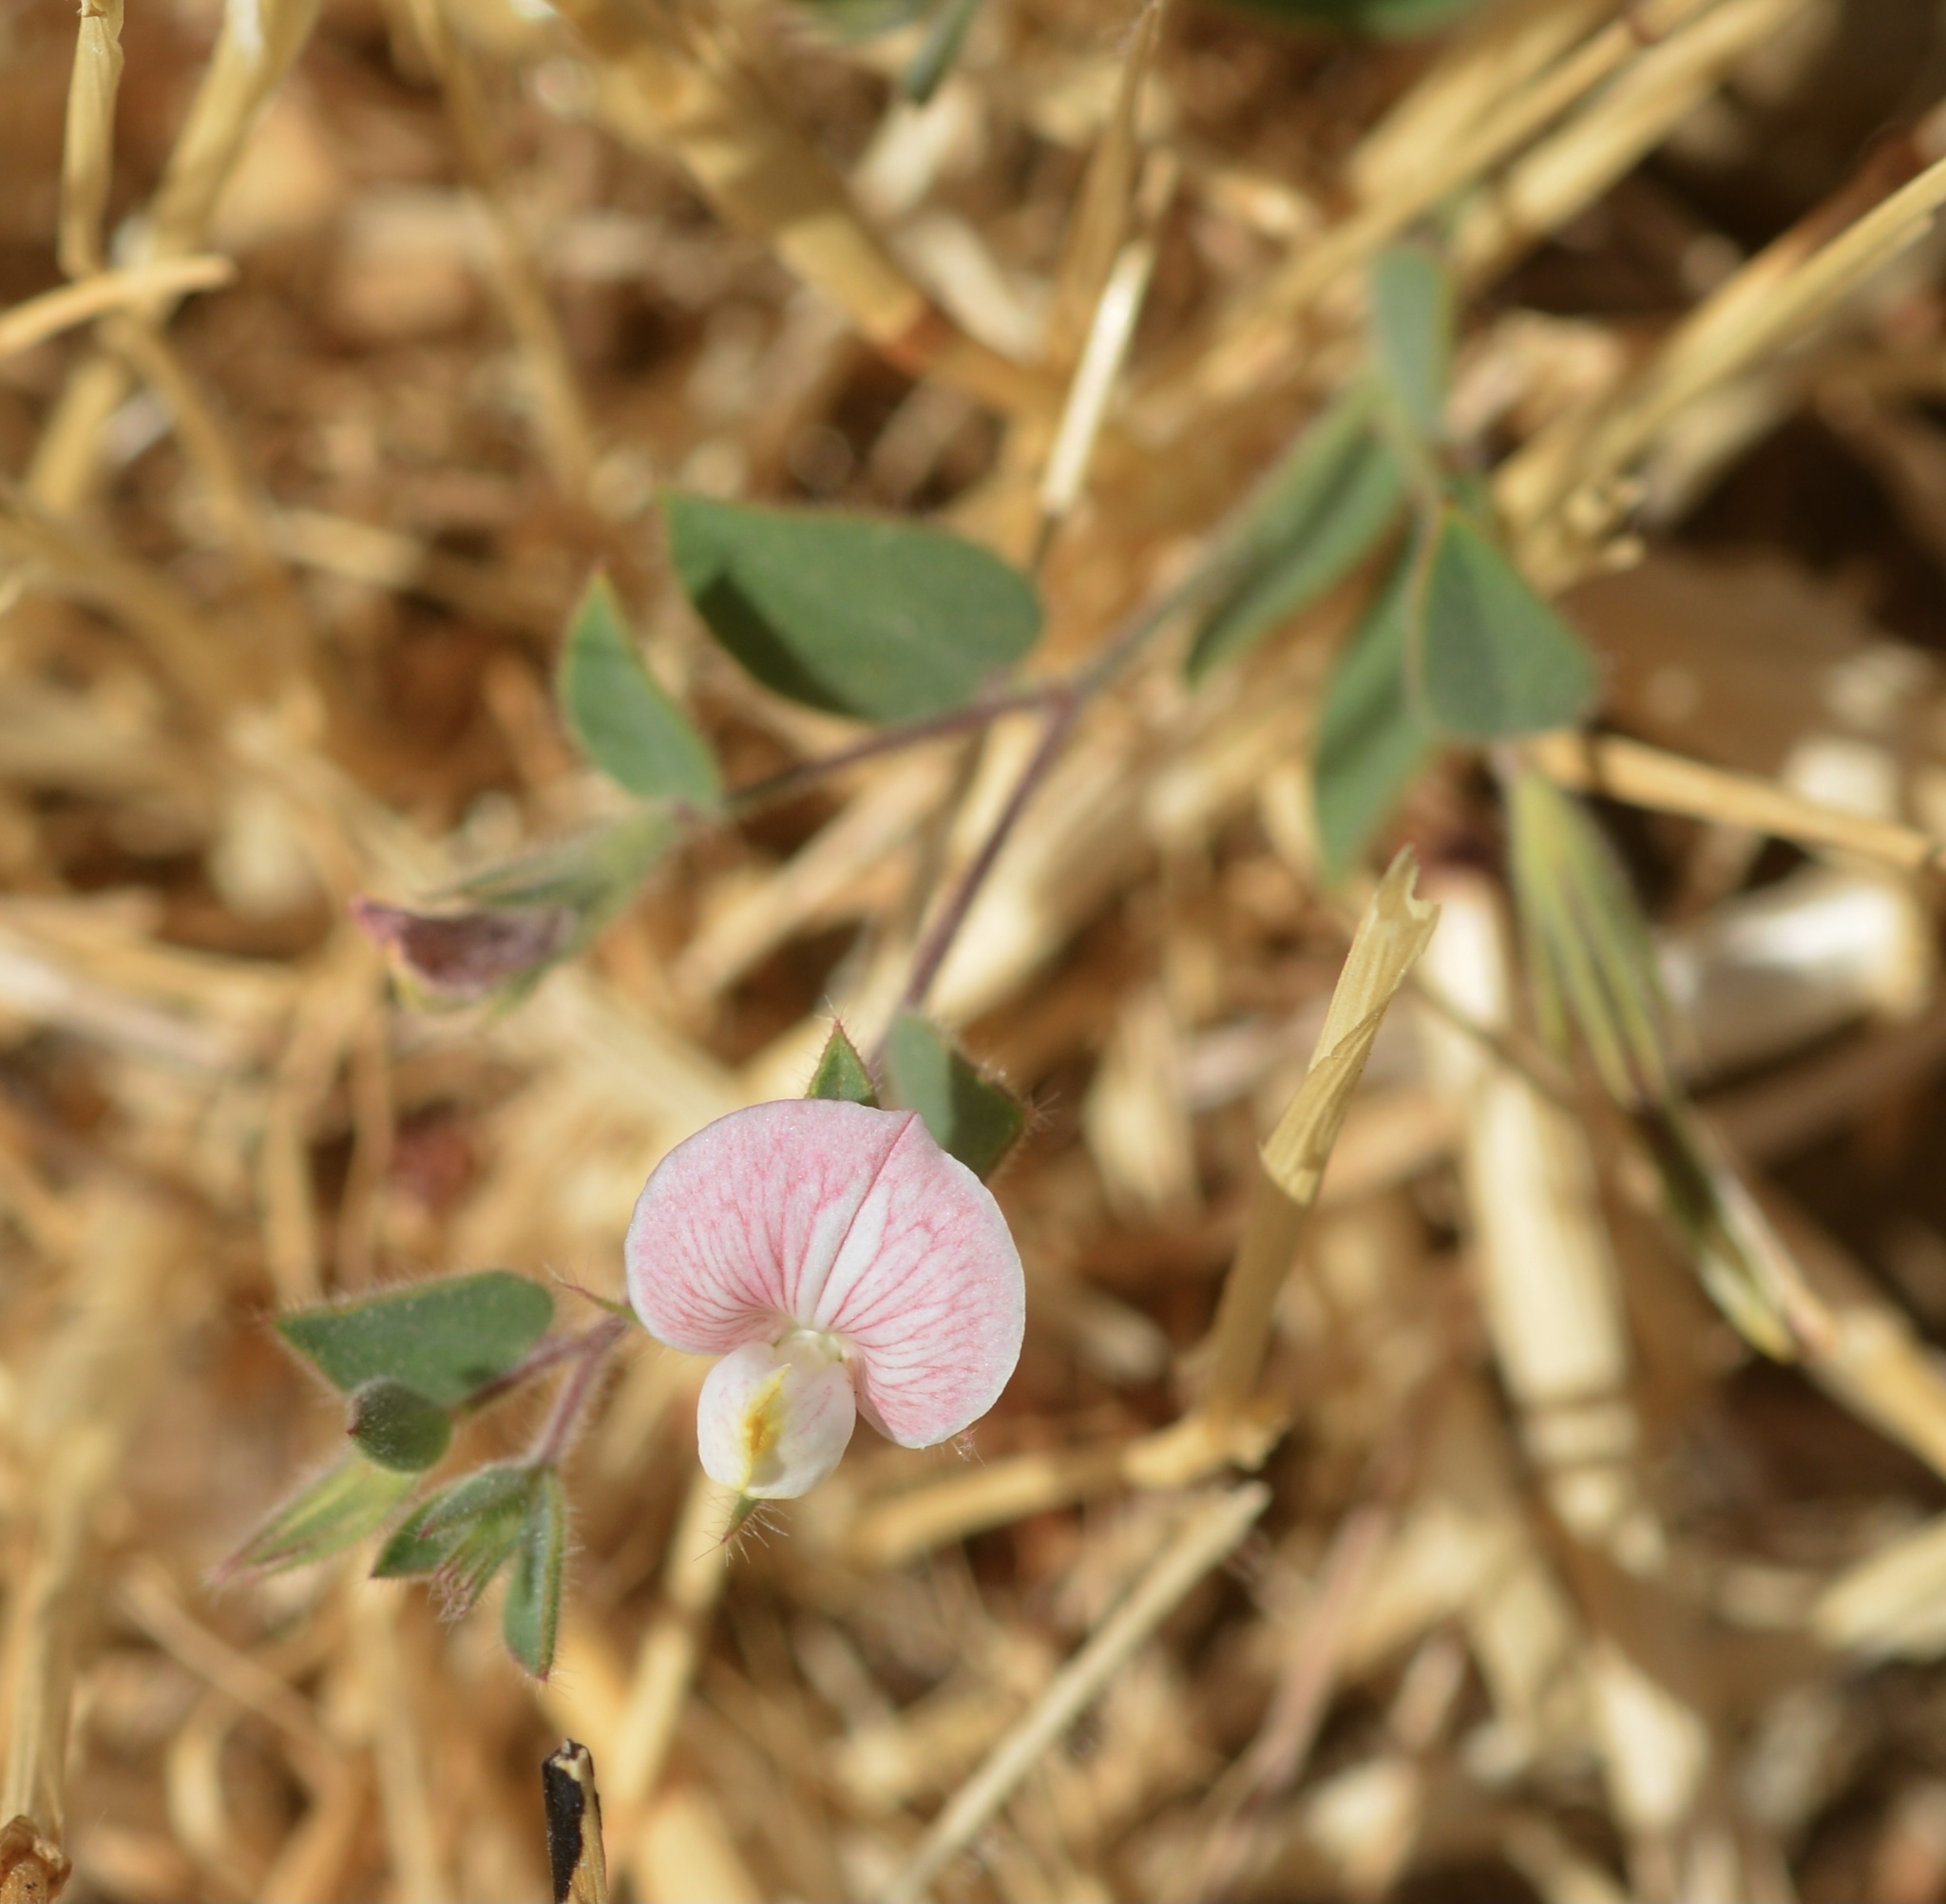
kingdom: Plantae
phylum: Tracheophyta
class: Magnoliopsida
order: Fabales
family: Fabaceae
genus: Acmispon
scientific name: Acmispon americanus
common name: American bird's-foot trefoil
